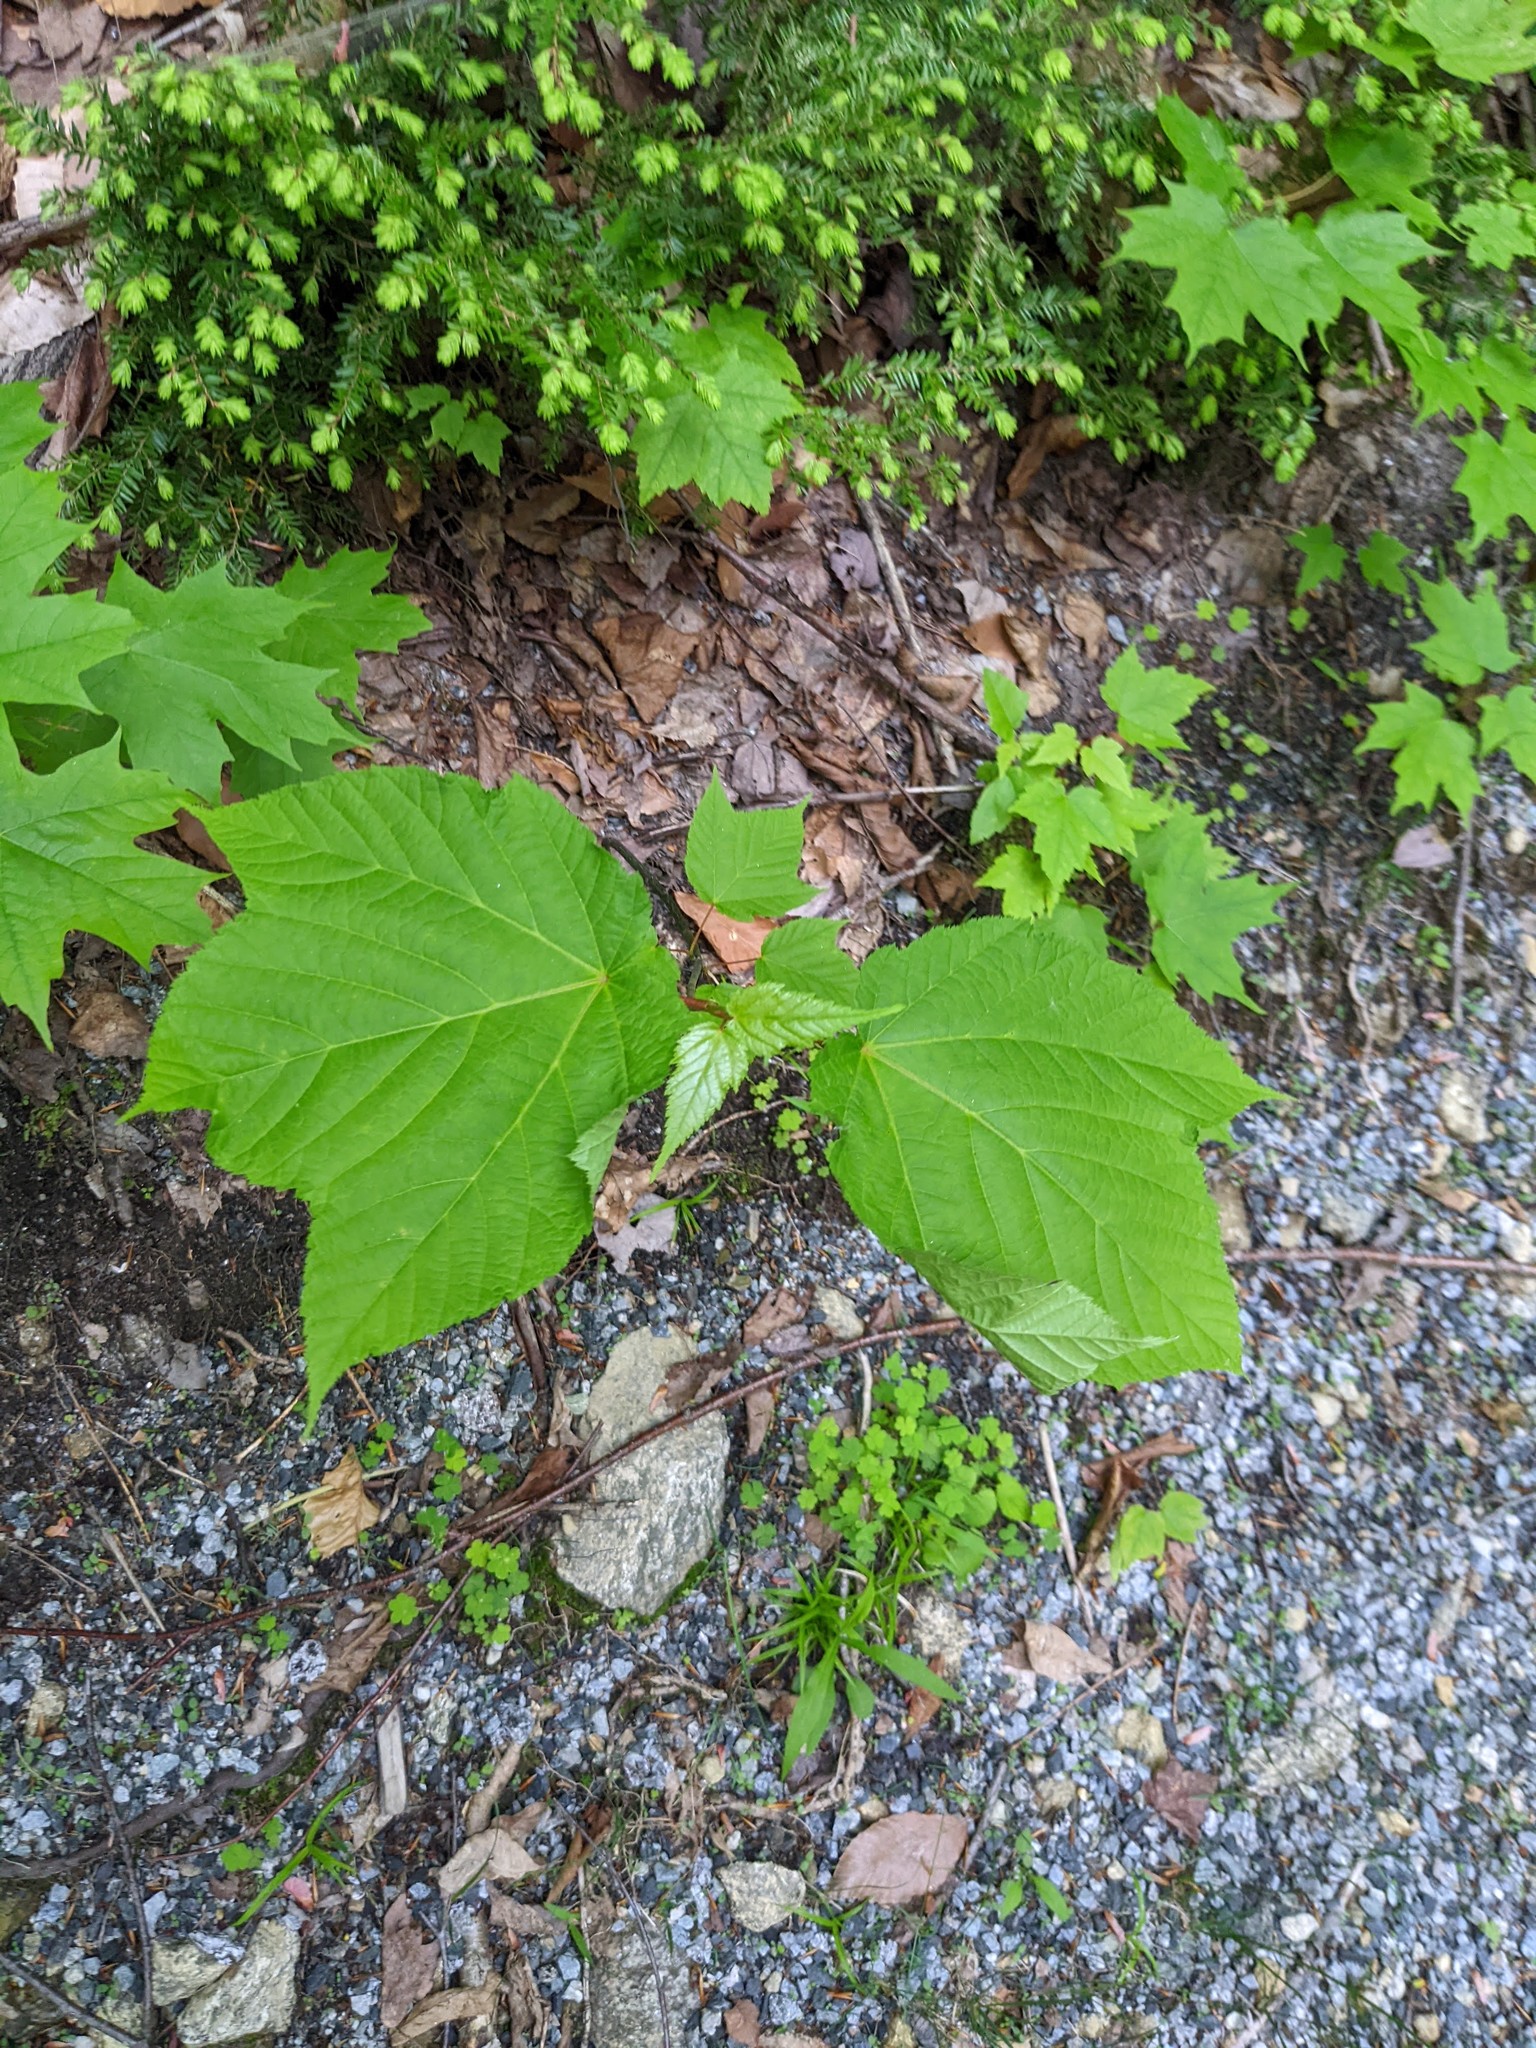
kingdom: Plantae
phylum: Tracheophyta
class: Magnoliopsida
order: Sapindales
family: Sapindaceae
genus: Acer
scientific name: Acer pensylvanicum
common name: Moosewood
